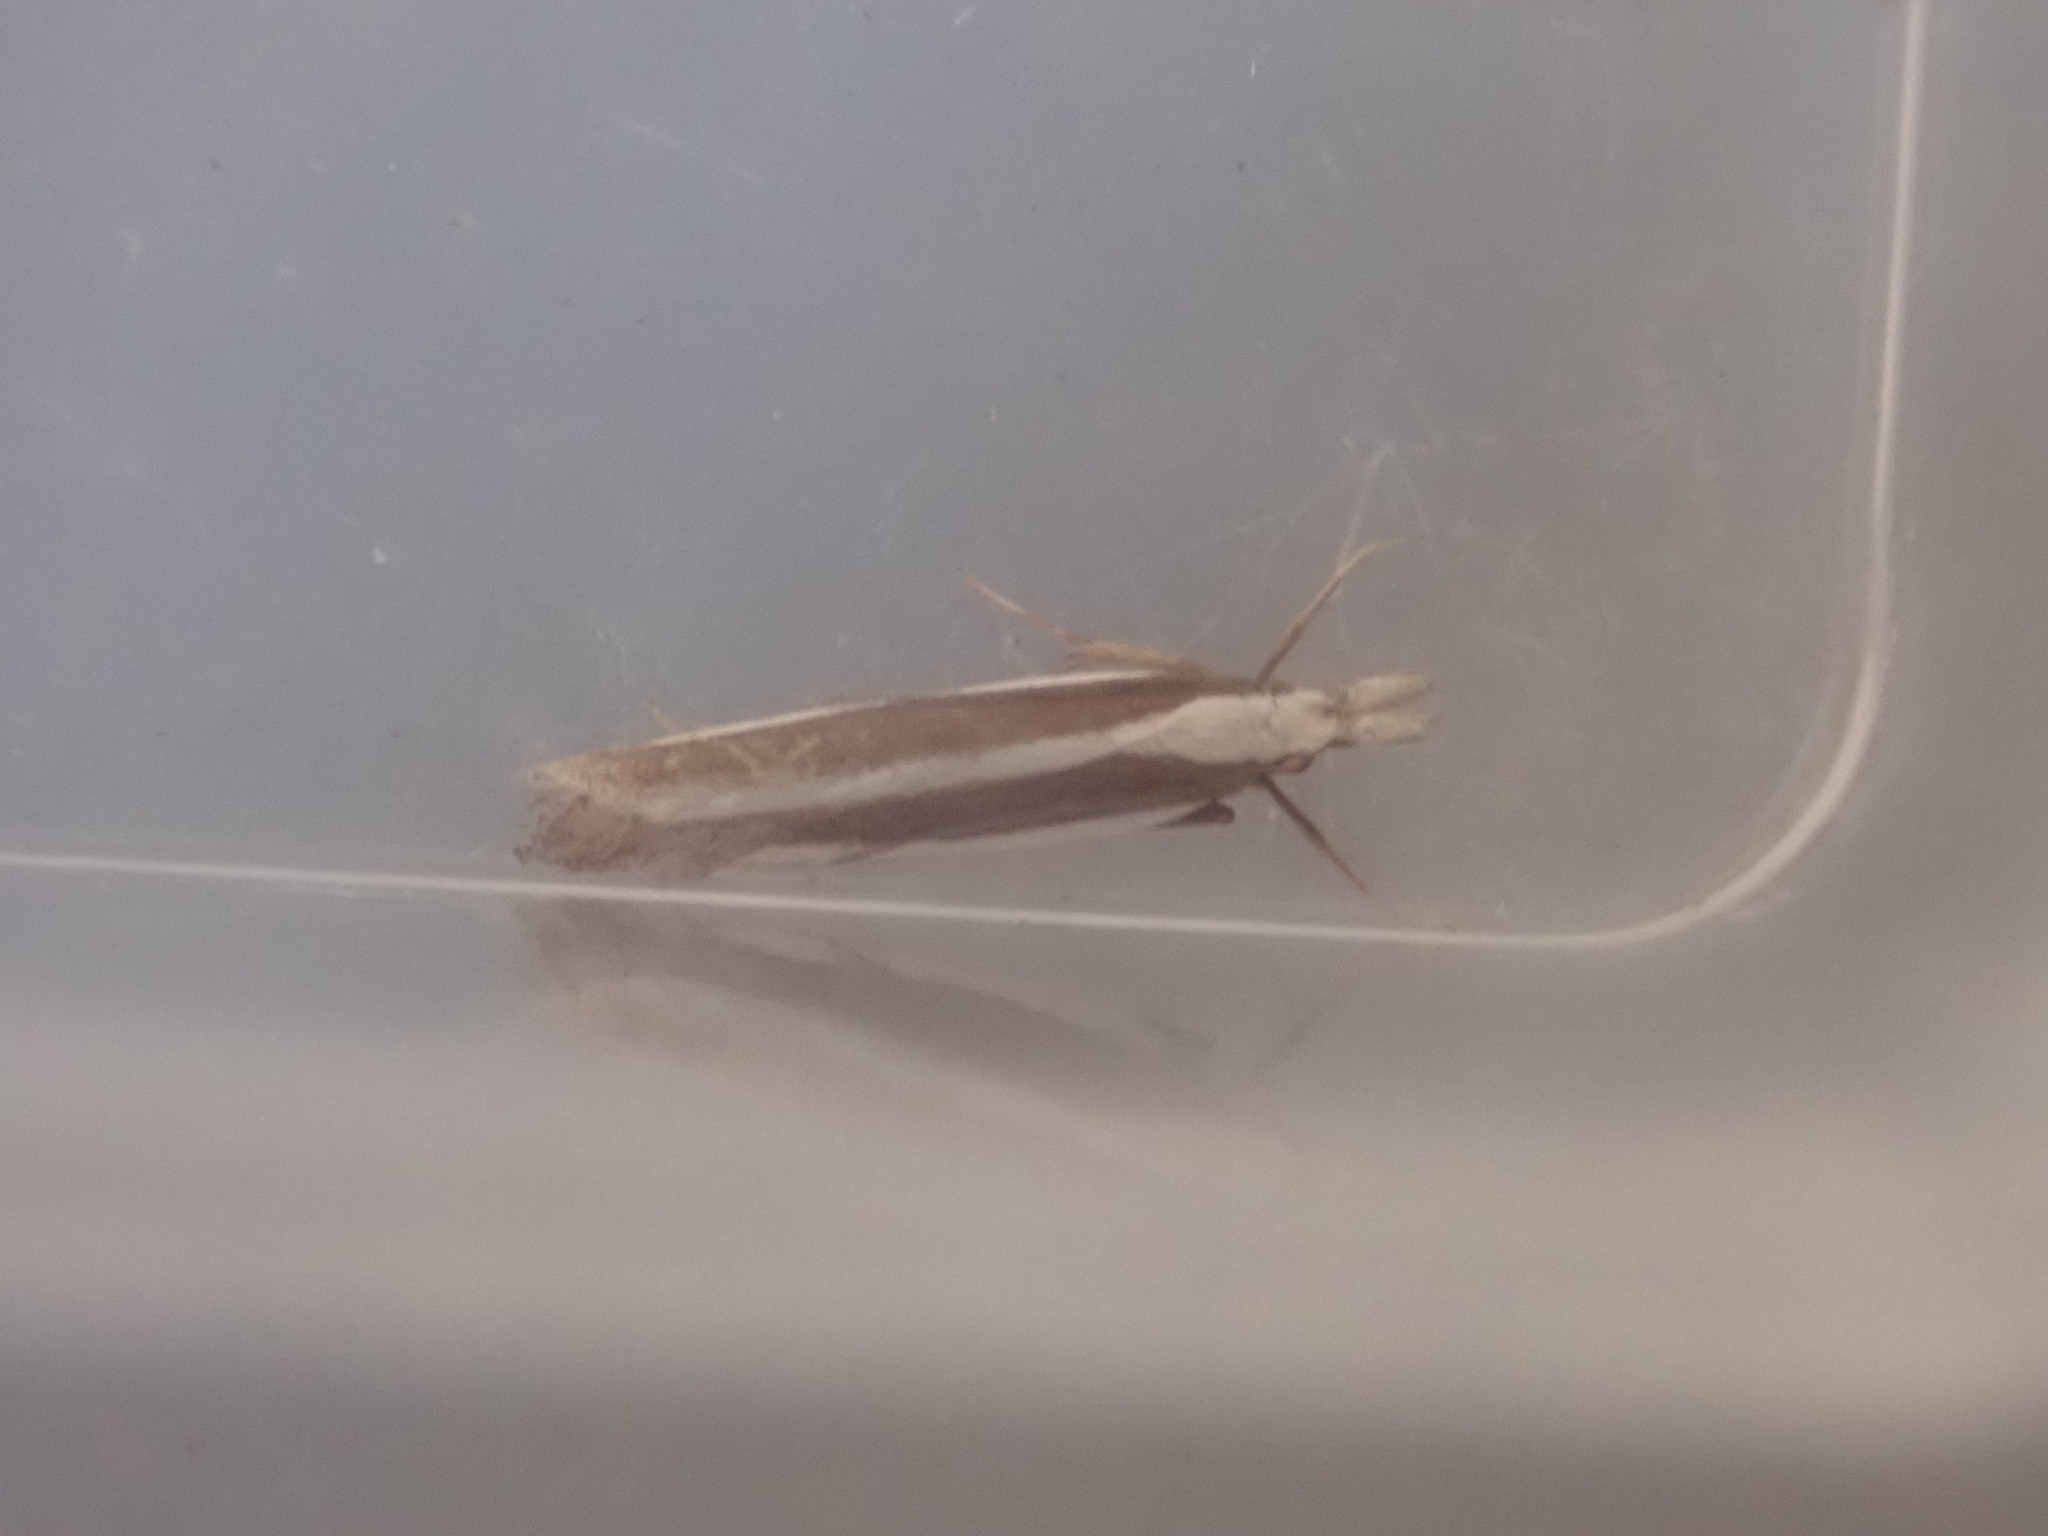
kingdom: Animalia
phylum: Arthropoda
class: Insecta
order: Lepidoptera
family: Gelechiidae
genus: Dichomeris
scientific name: Dichomeris marginella
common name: Juniper webworm
